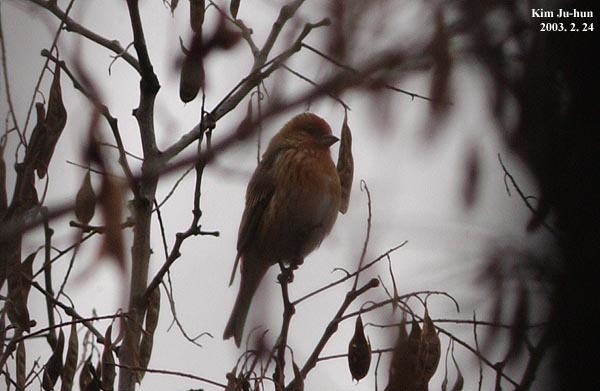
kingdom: Animalia
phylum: Chordata
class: Aves
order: Passeriformes
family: Fringillidae
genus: Carpodacus
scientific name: Carpodacus roseus
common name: Pallas's rosefinch
